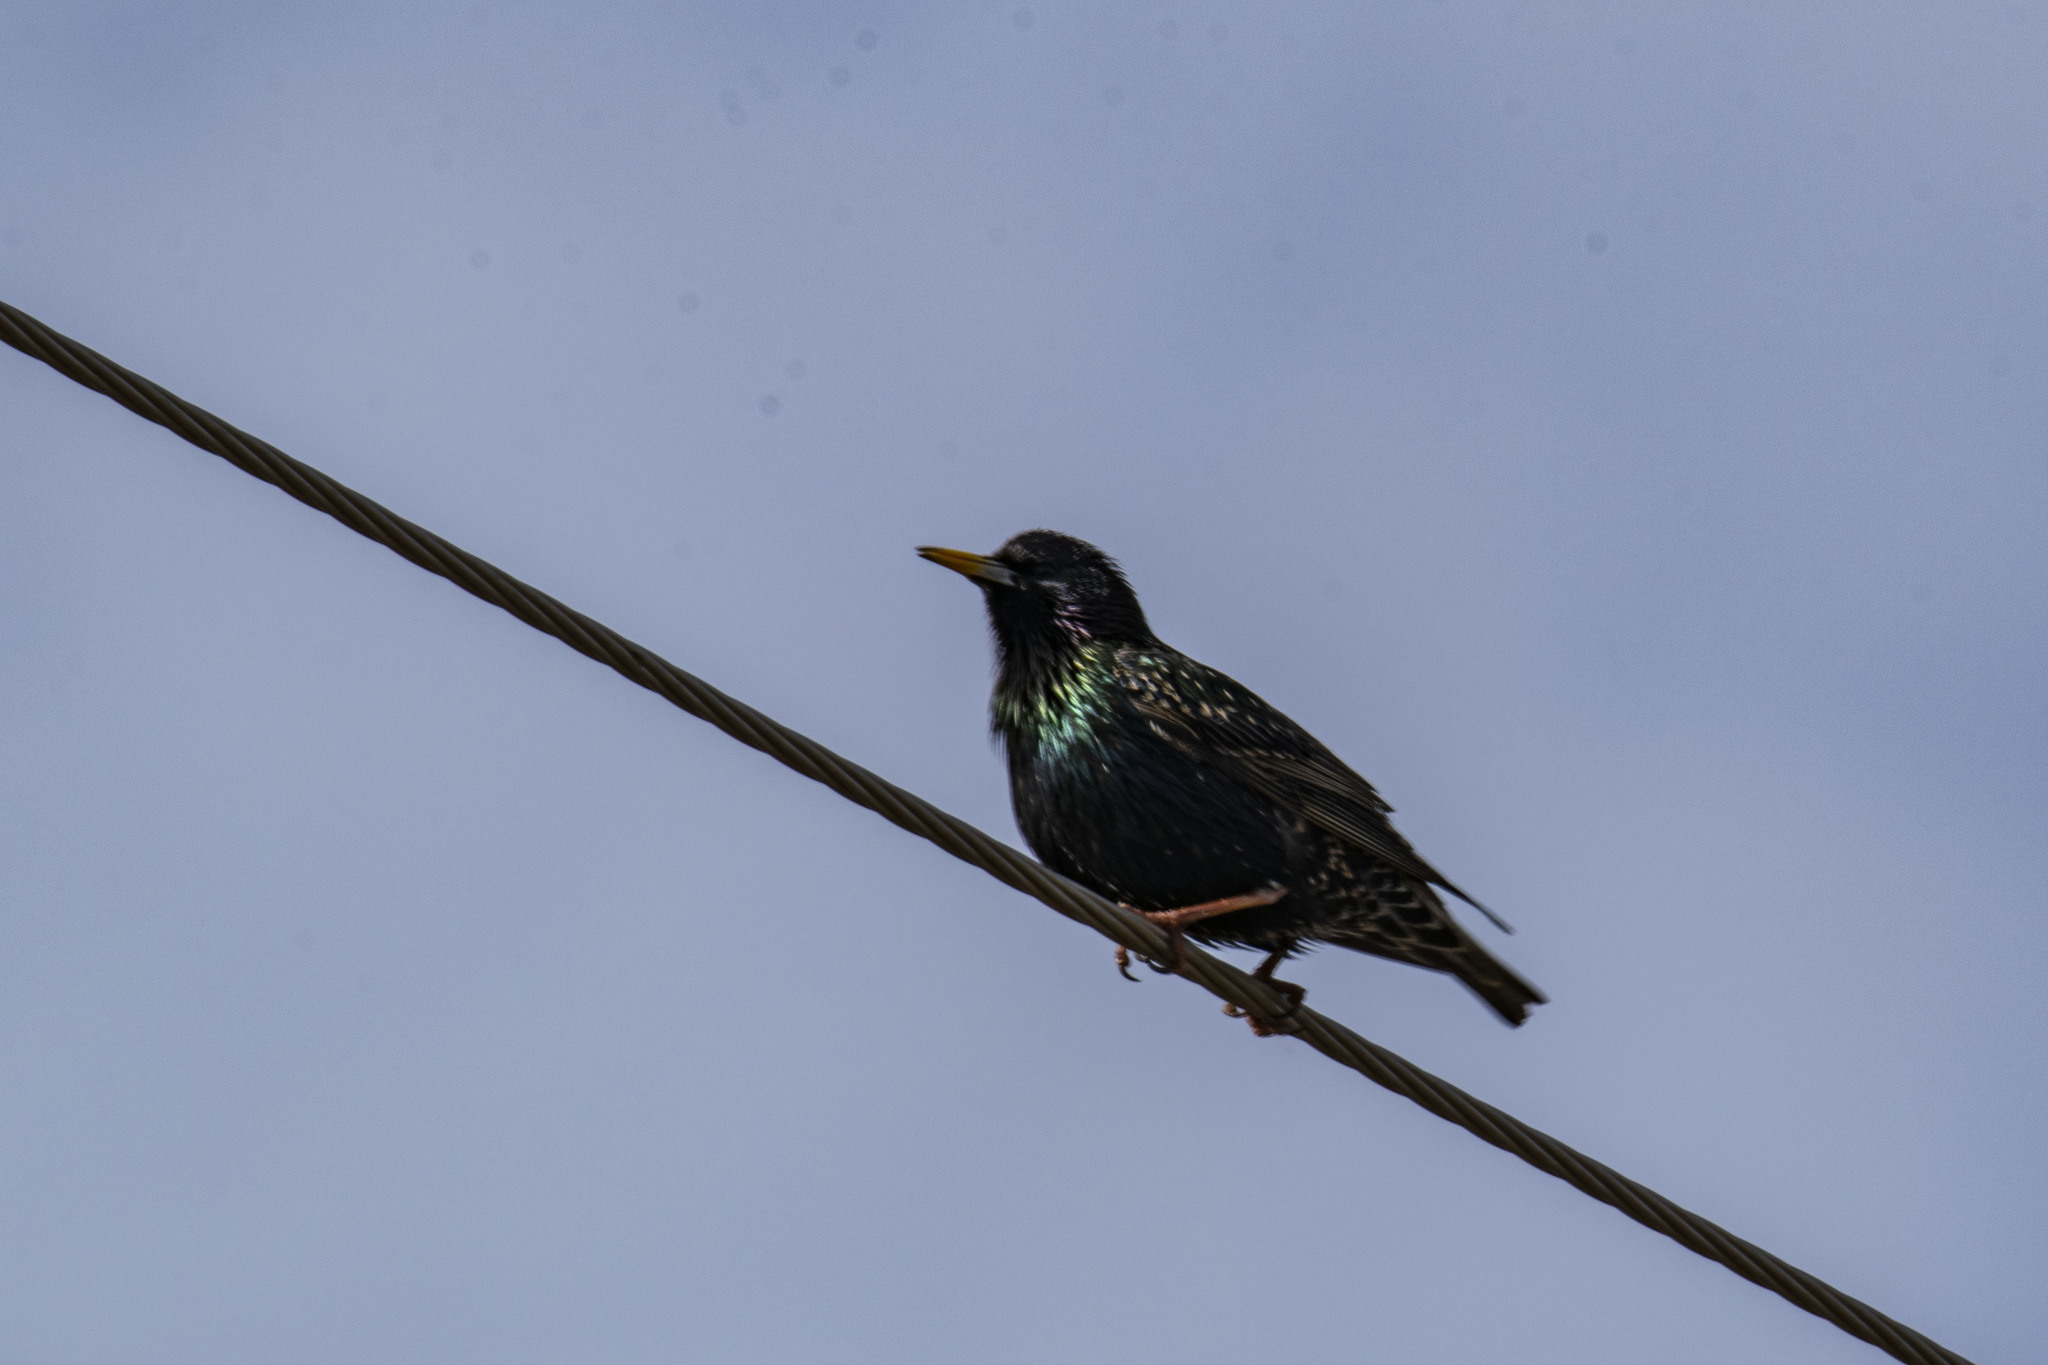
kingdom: Animalia
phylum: Chordata
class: Aves
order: Passeriformes
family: Sturnidae
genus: Sturnus
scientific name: Sturnus vulgaris
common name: Common starling
